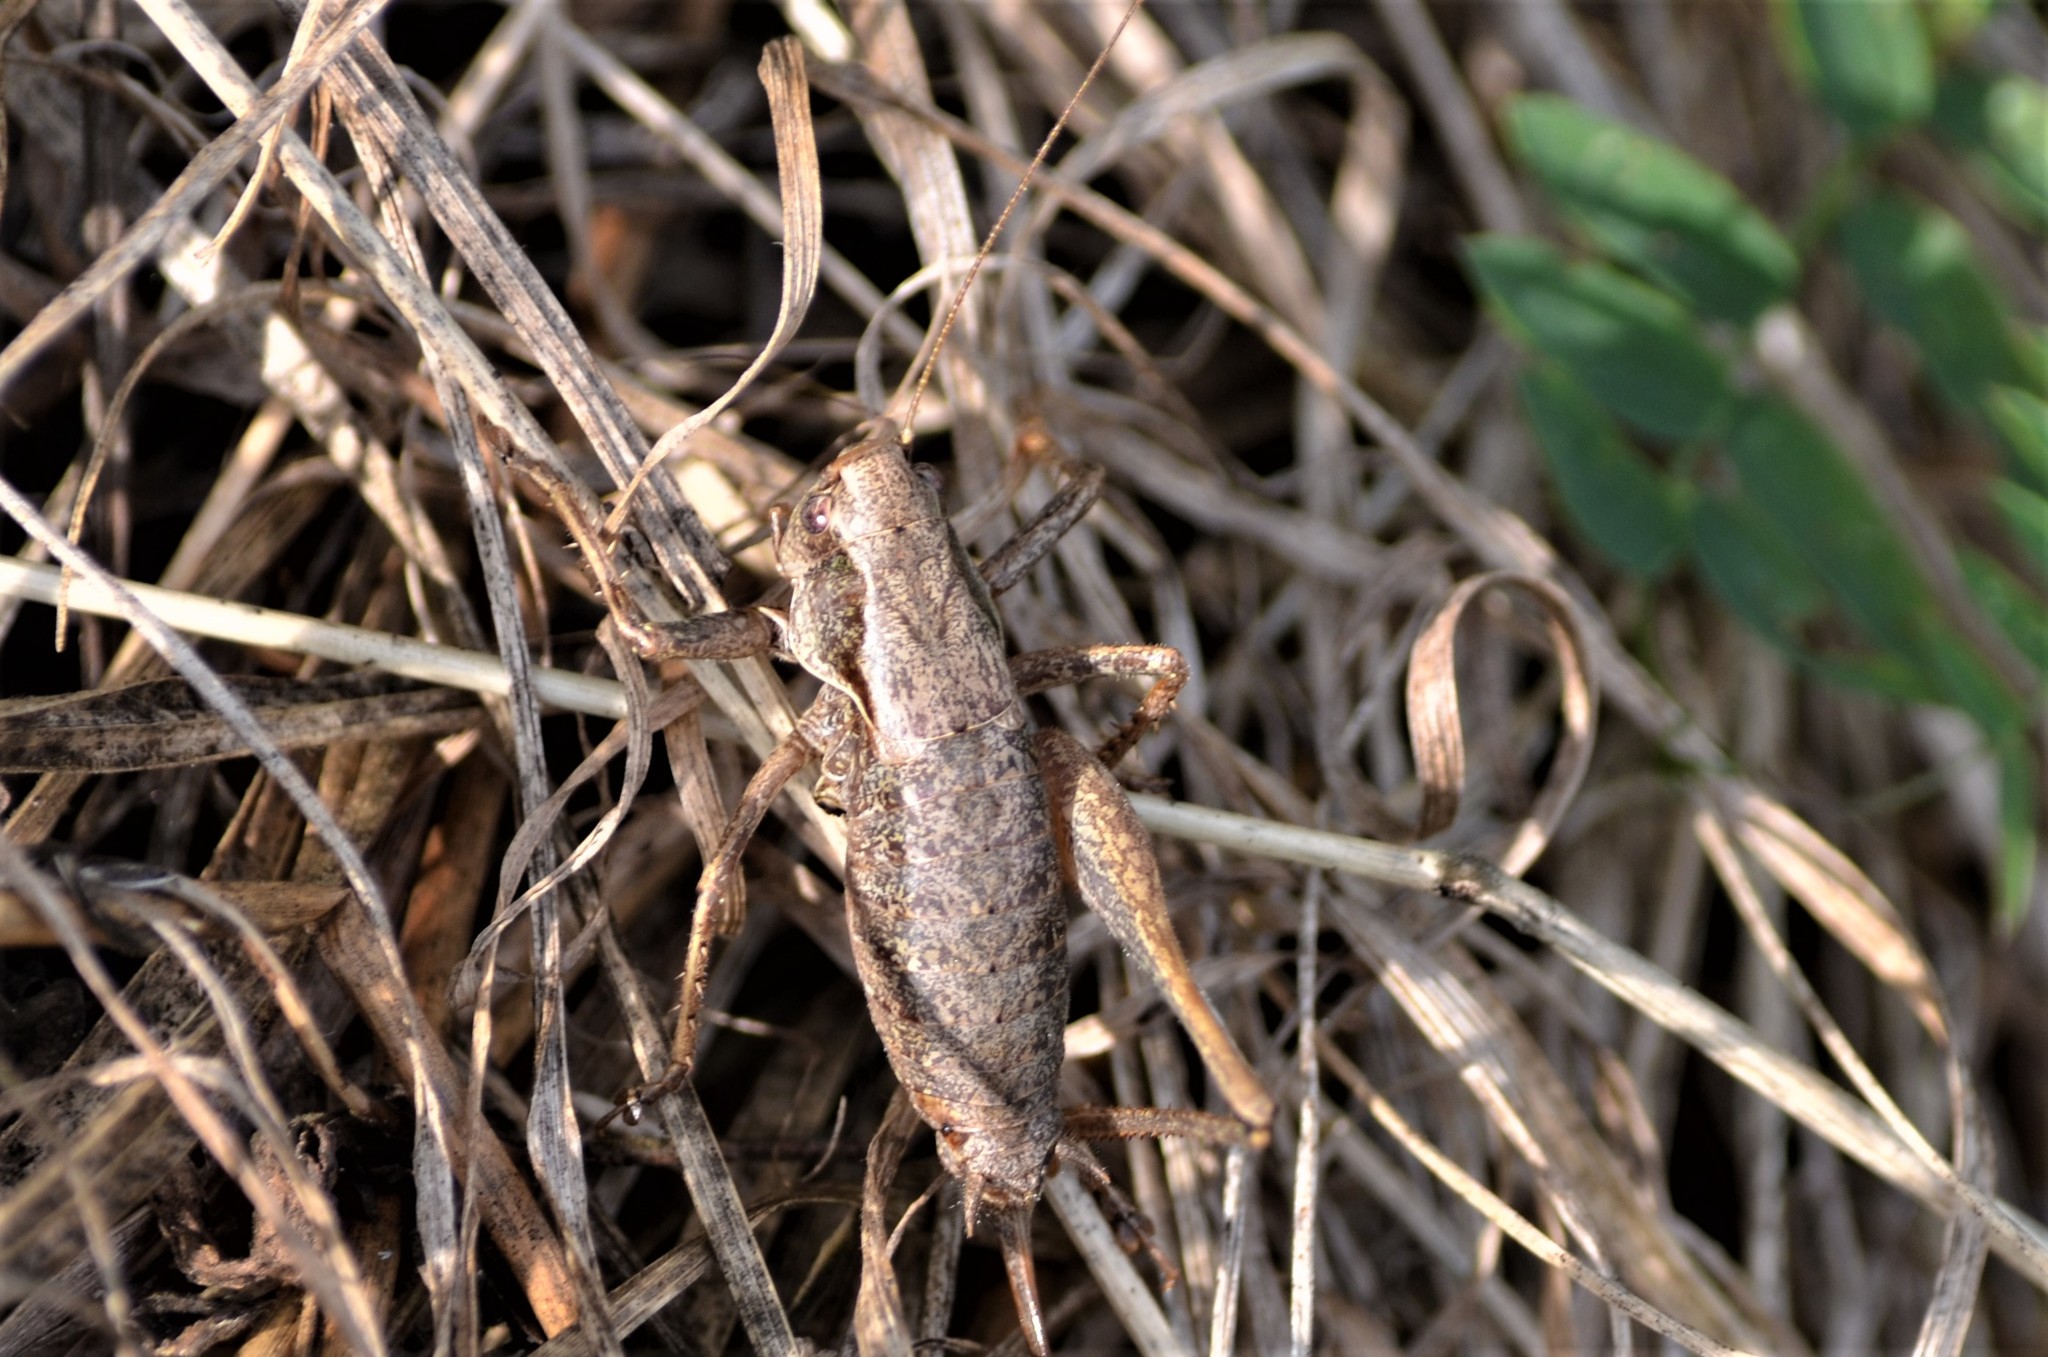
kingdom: Animalia
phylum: Arthropoda
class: Insecta
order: Orthoptera
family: Tettigoniidae
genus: Pholidoptera
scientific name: Pholidoptera griseoaptera
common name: Dark bush-cricket
